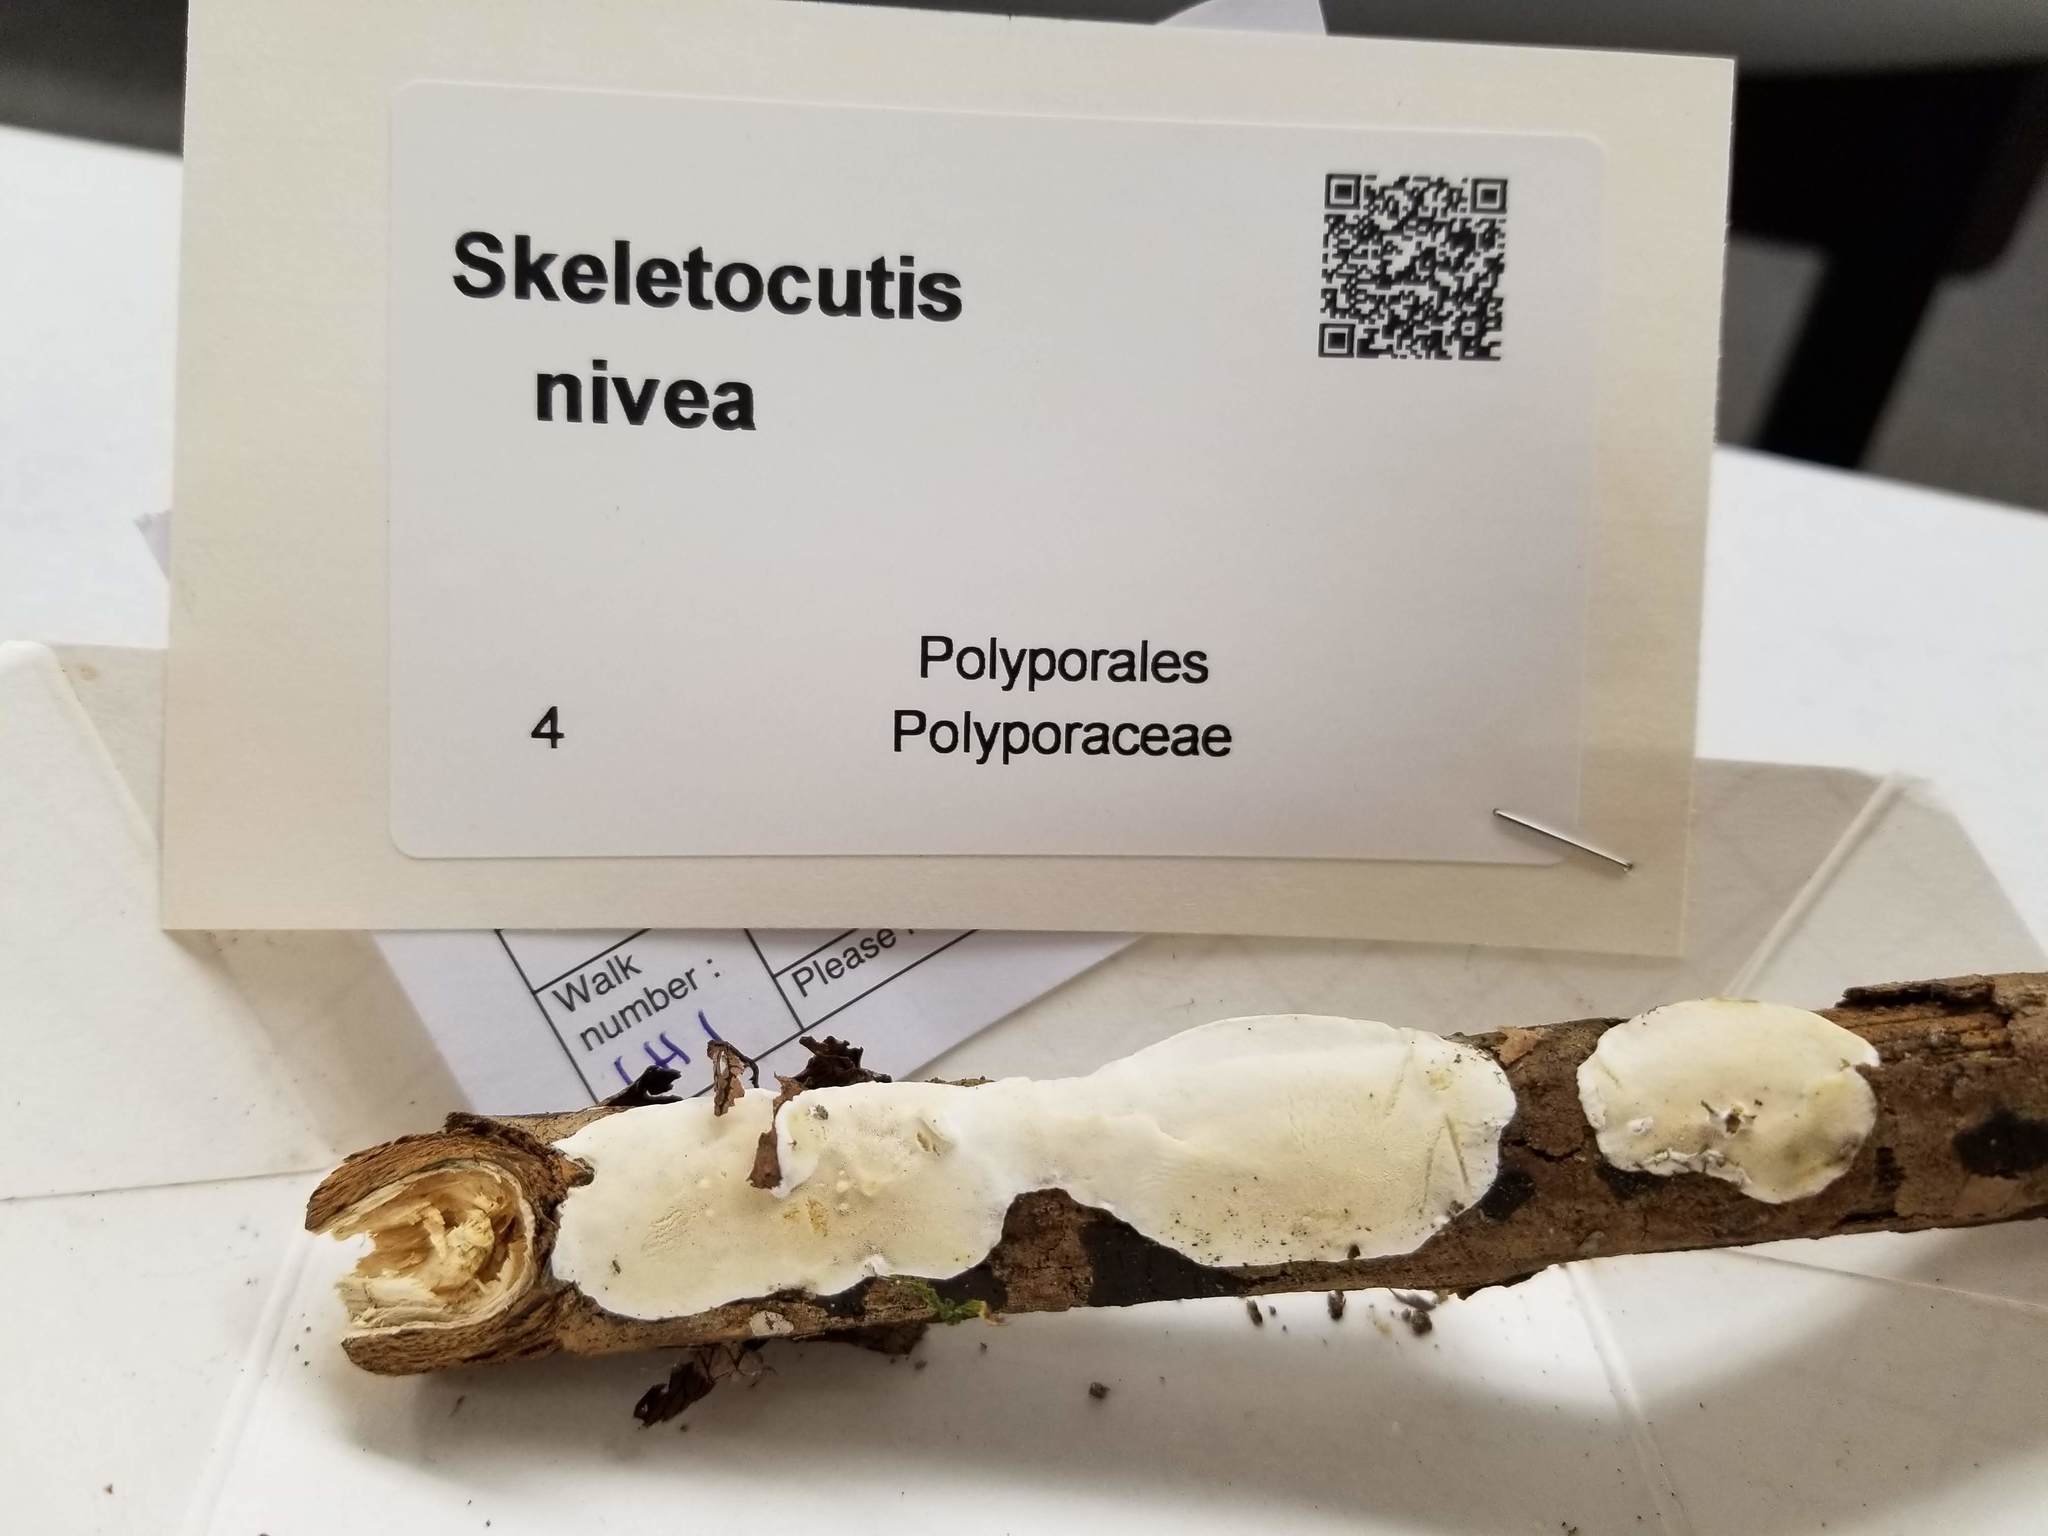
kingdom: Fungi
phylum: Basidiomycota
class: Agaricomycetes
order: Polyporales
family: Incrustoporiaceae
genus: Skeletocutis
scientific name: Skeletocutis nivea
